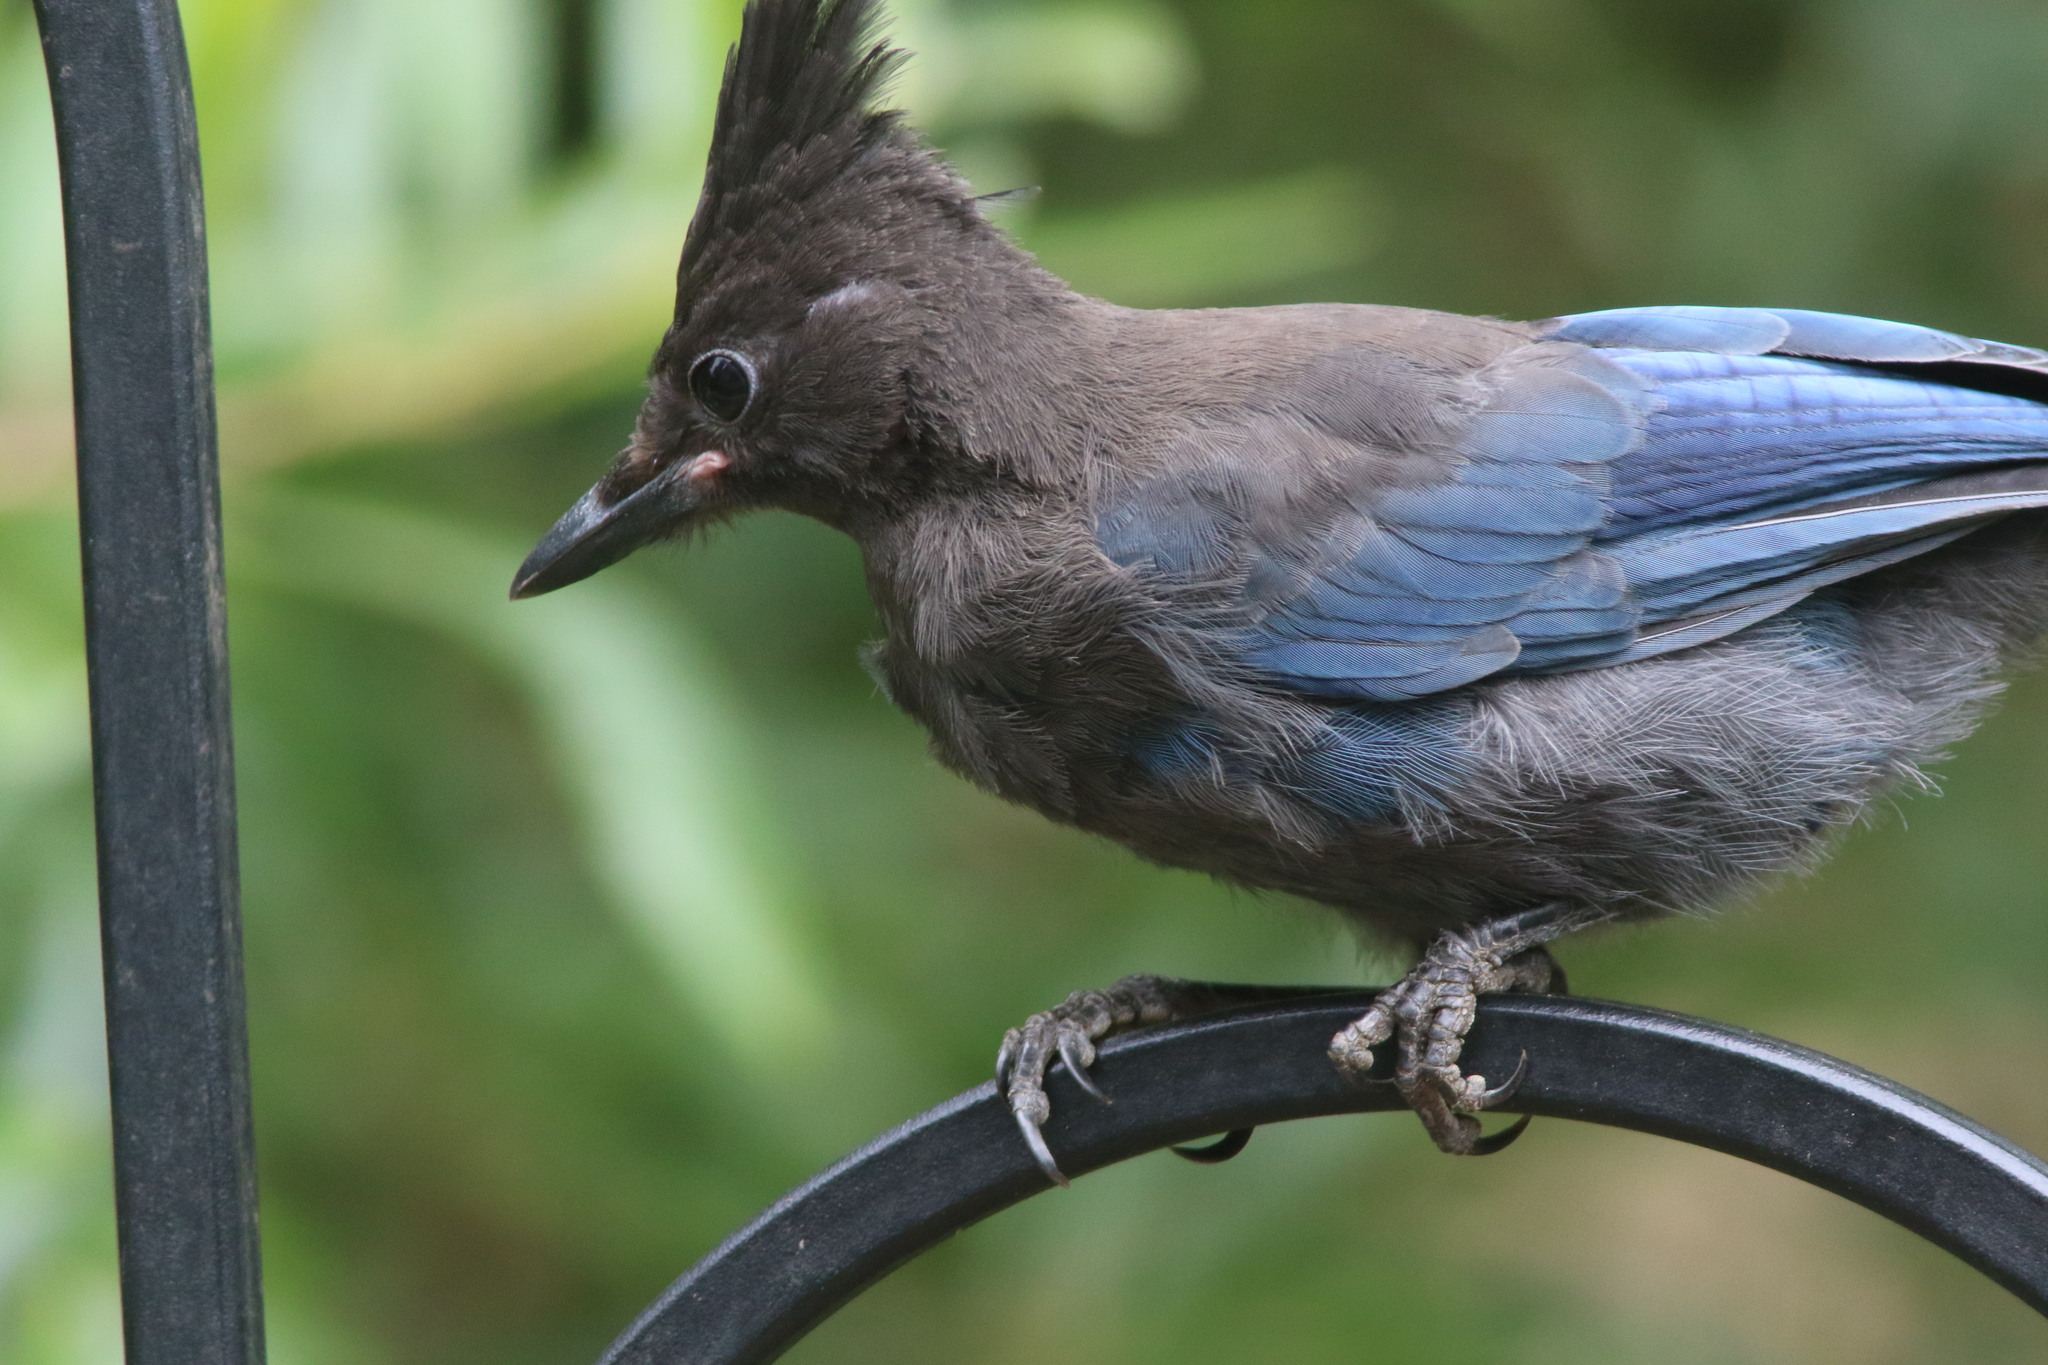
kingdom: Animalia
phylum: Chordata
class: Aves
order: Passeriformes
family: Corvidae
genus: Cyanocitta
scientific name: Cyanocitta stelleri
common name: Steller's jay
